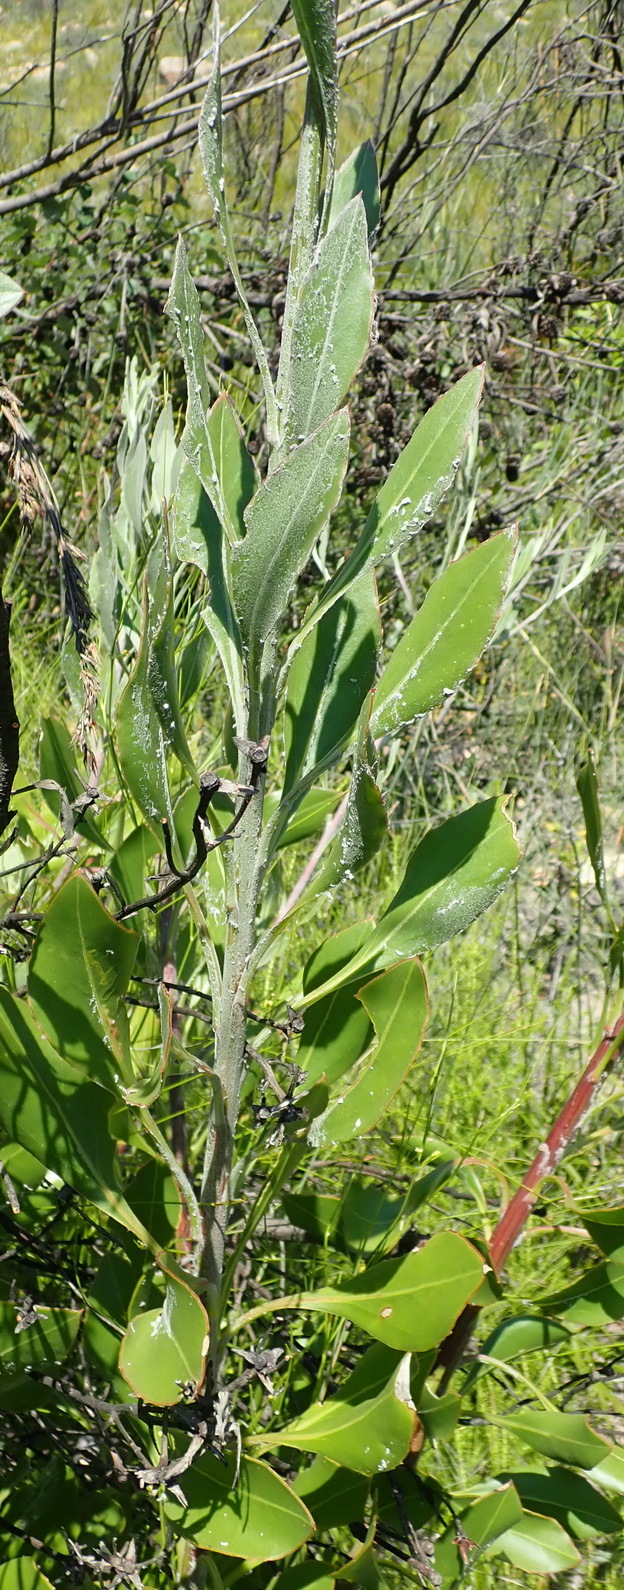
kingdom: Plantae
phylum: Tracheophyta
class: Magnoliopsida
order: Asterales
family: Asteraceae
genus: Osteospermum
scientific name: Osteospermum junceum
